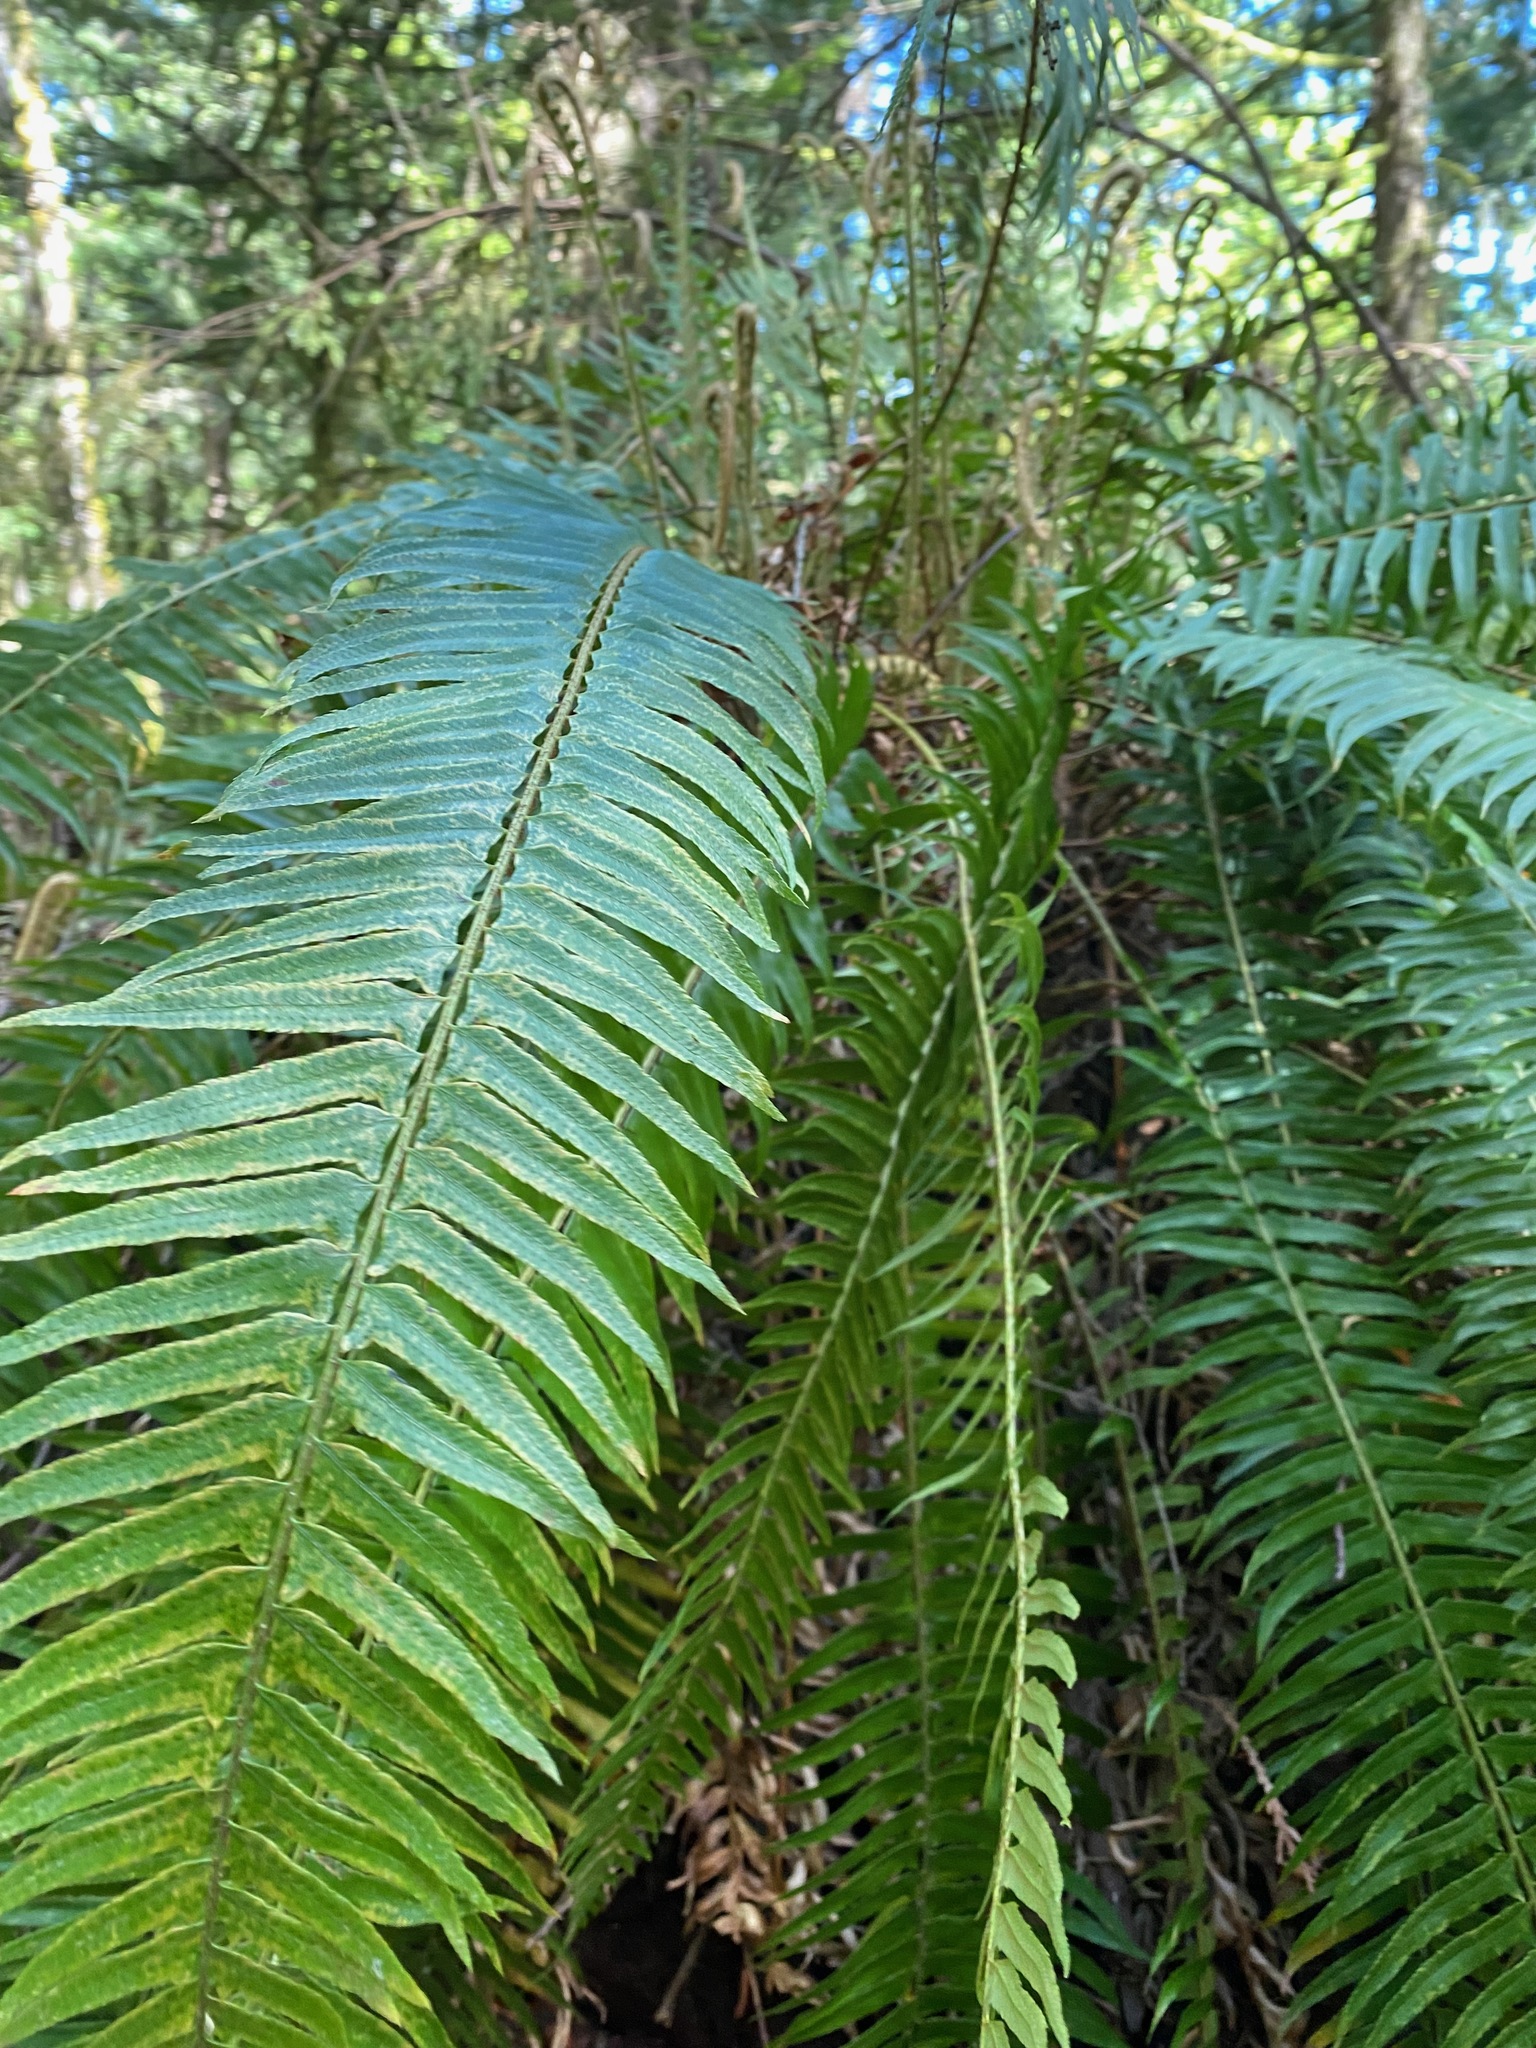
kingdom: Plantae
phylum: Tracheophyta
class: Polypodiopsida
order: Polypodiales
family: Dryopteridaceae
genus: Polystichum
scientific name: Polystichum munitum
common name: Western sword-fern
